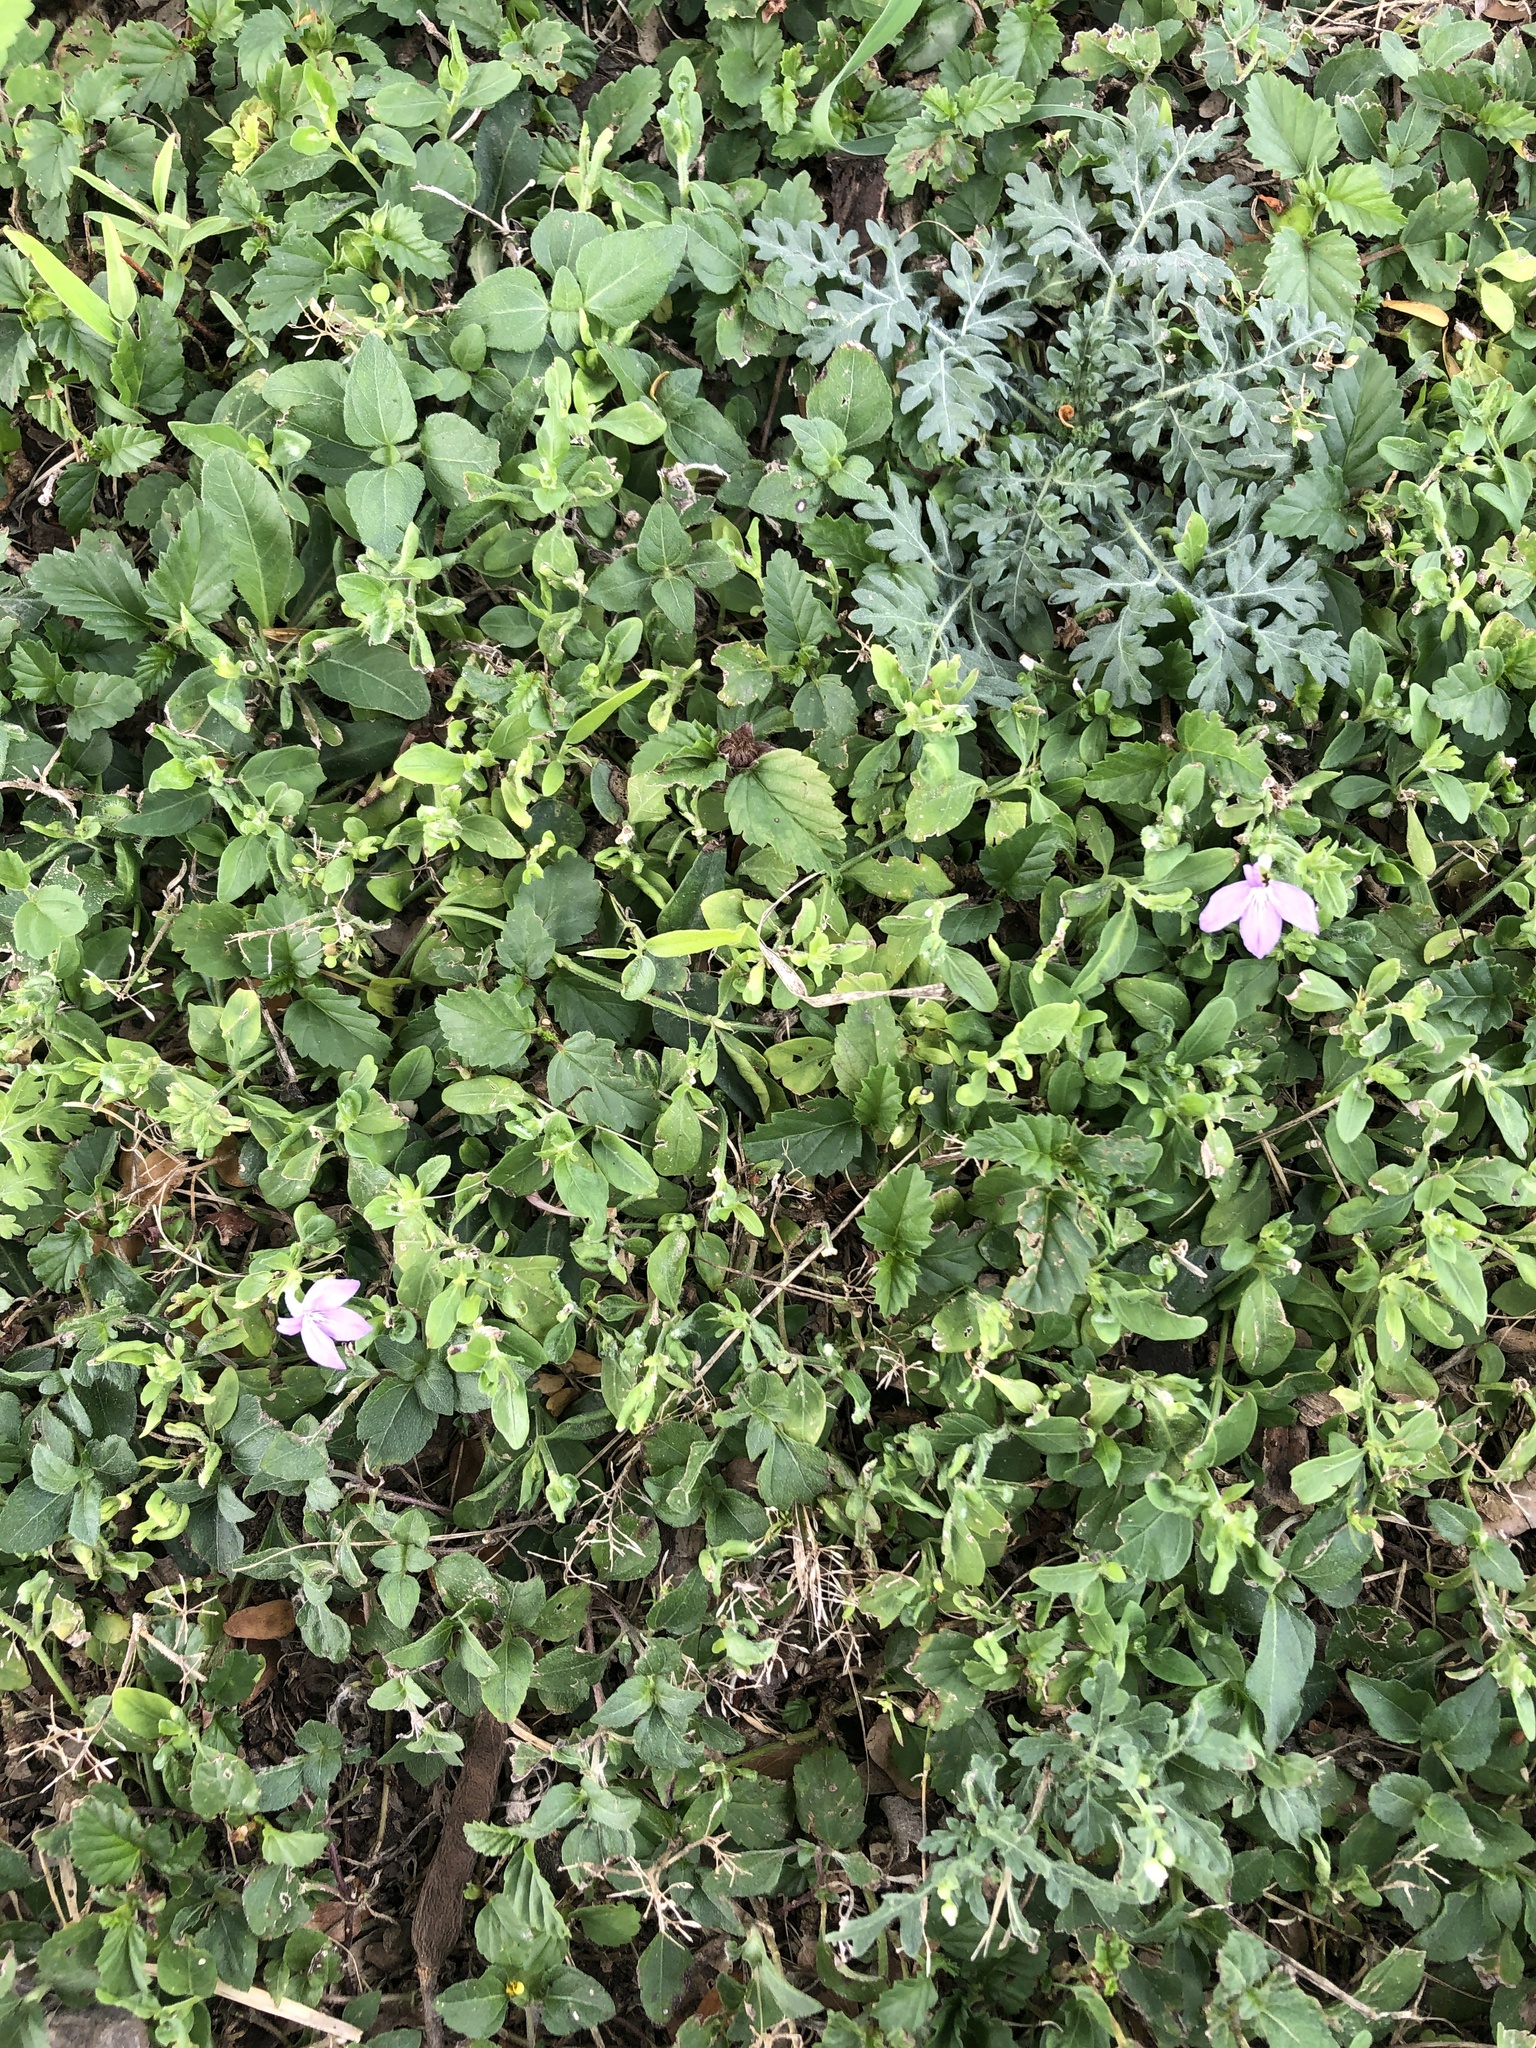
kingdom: Plantae
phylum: Tracheophyta
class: Magnoliopsida
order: Lamiales
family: Acanthaceae
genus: Justicia
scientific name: Justicia pilosella
